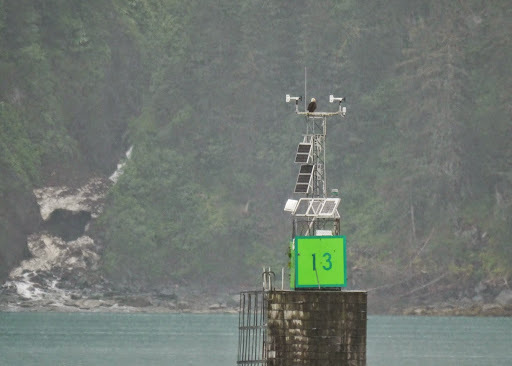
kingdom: Animalia
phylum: Chordata
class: Aves
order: Accipitriformes
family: Accipitridae
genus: Haliaeetus
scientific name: Haliaeetus leucocephalus
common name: Bald eagle
